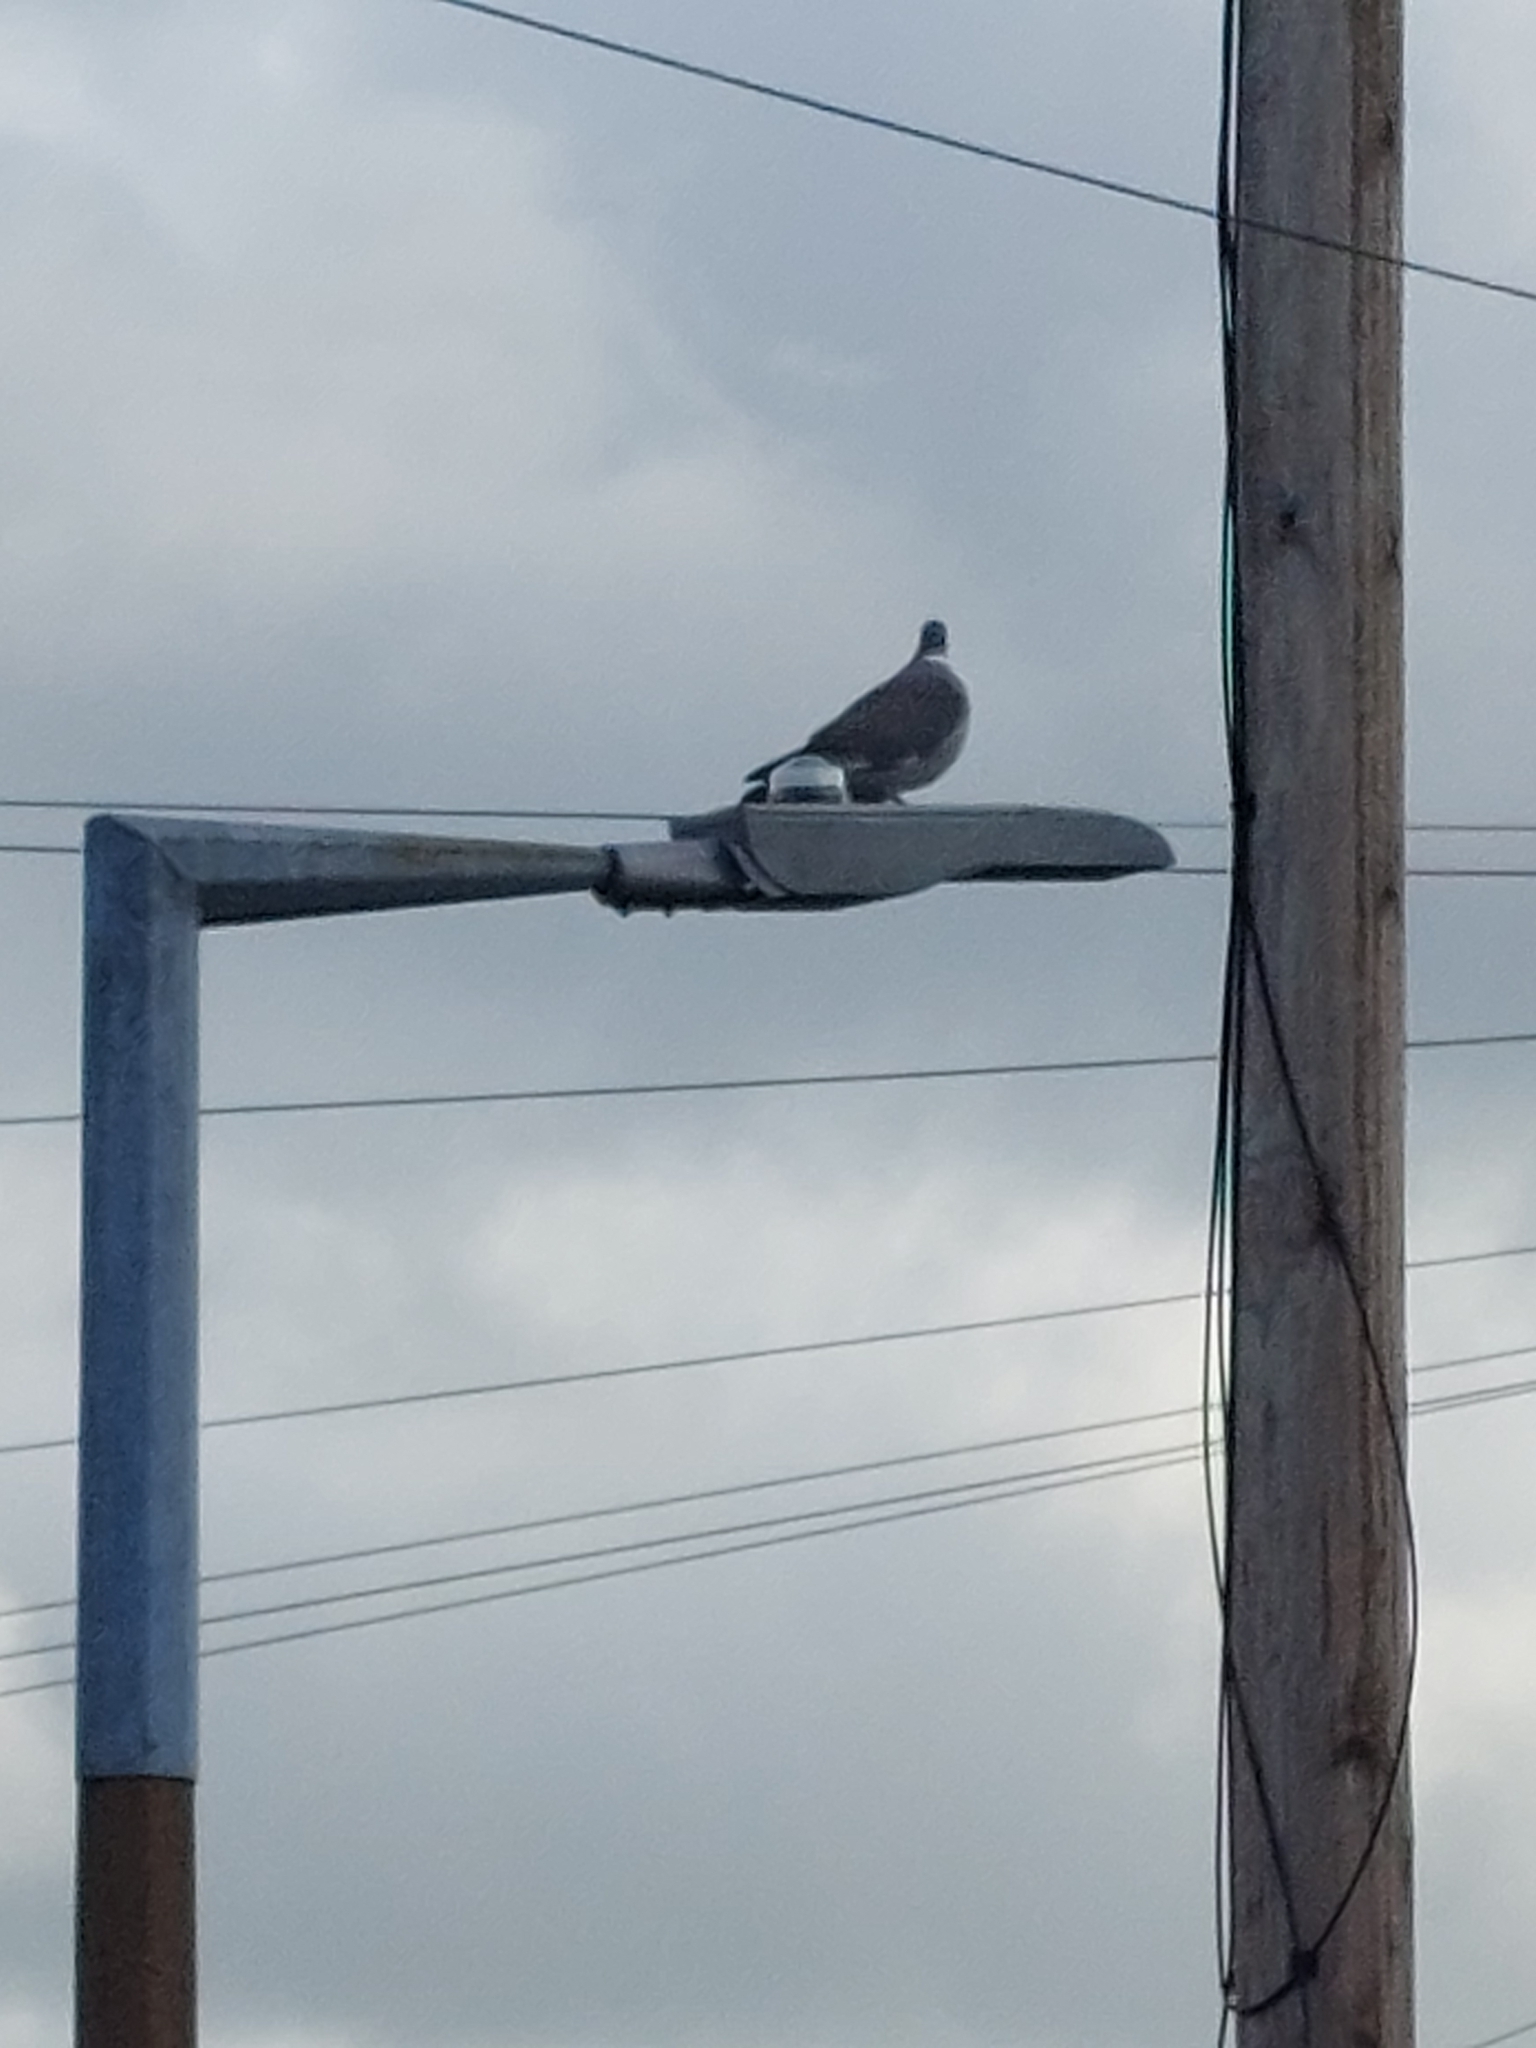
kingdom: Animalia
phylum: Chordata
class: Aves
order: Columbiformes
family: Columbidae
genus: Columba
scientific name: Columba palumbus
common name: Common wood pigeon
